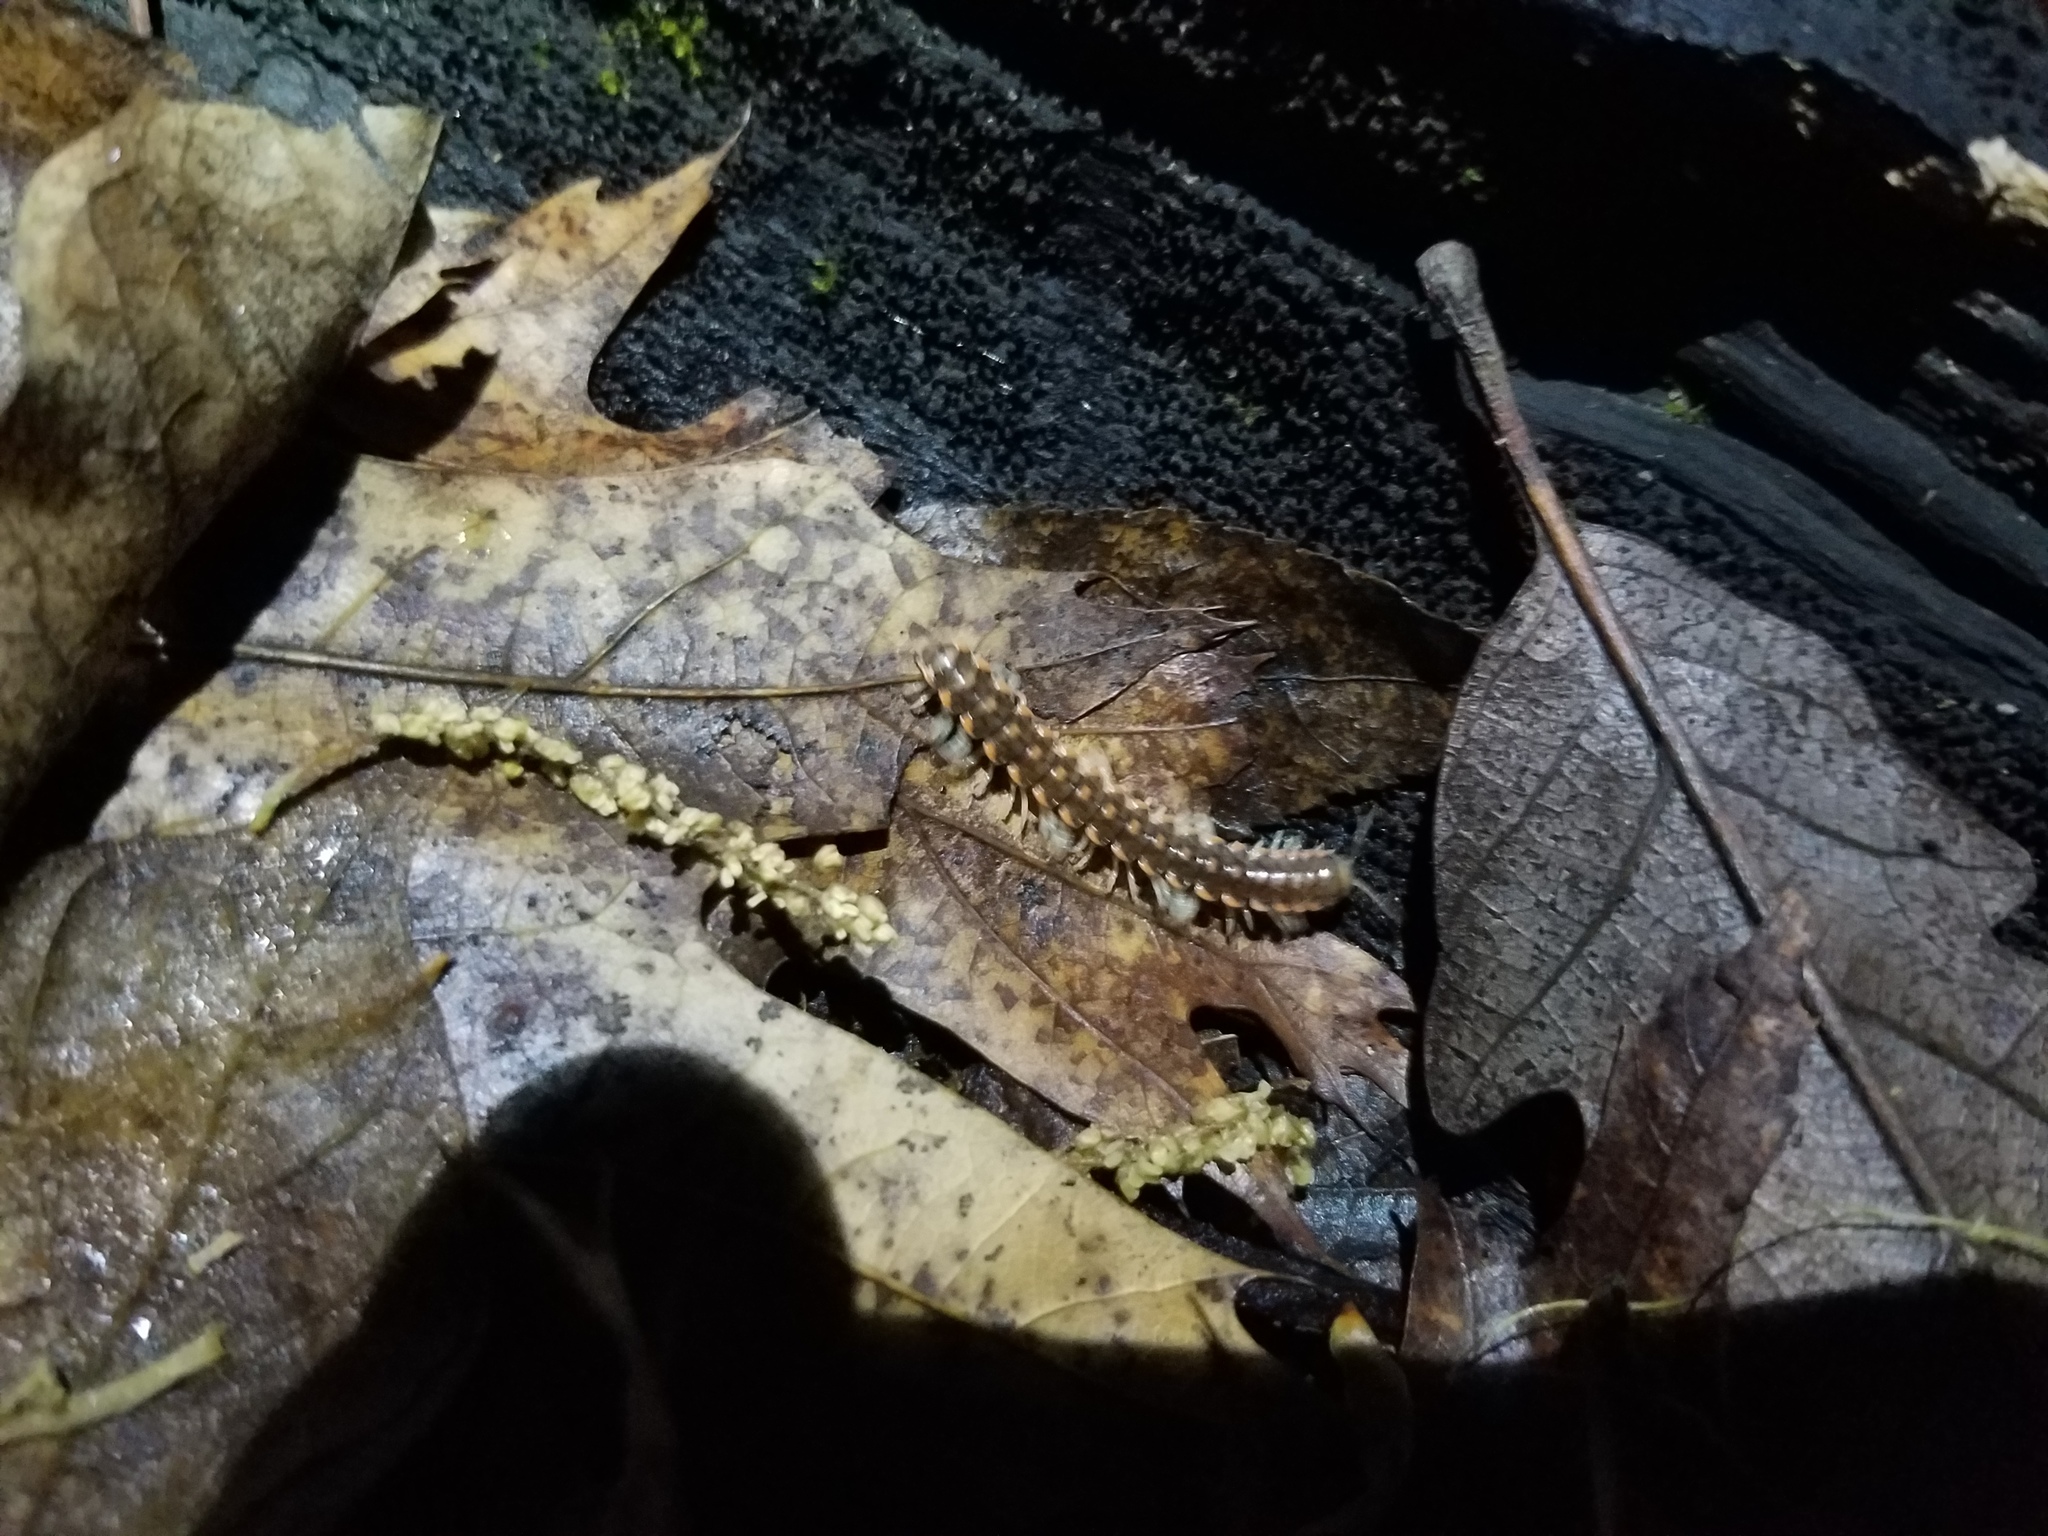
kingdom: Animalia
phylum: Arthropoda
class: Diplopoda
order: Polydesmida
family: Xystodesmidae
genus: Euryurus
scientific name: Euryurus evides
